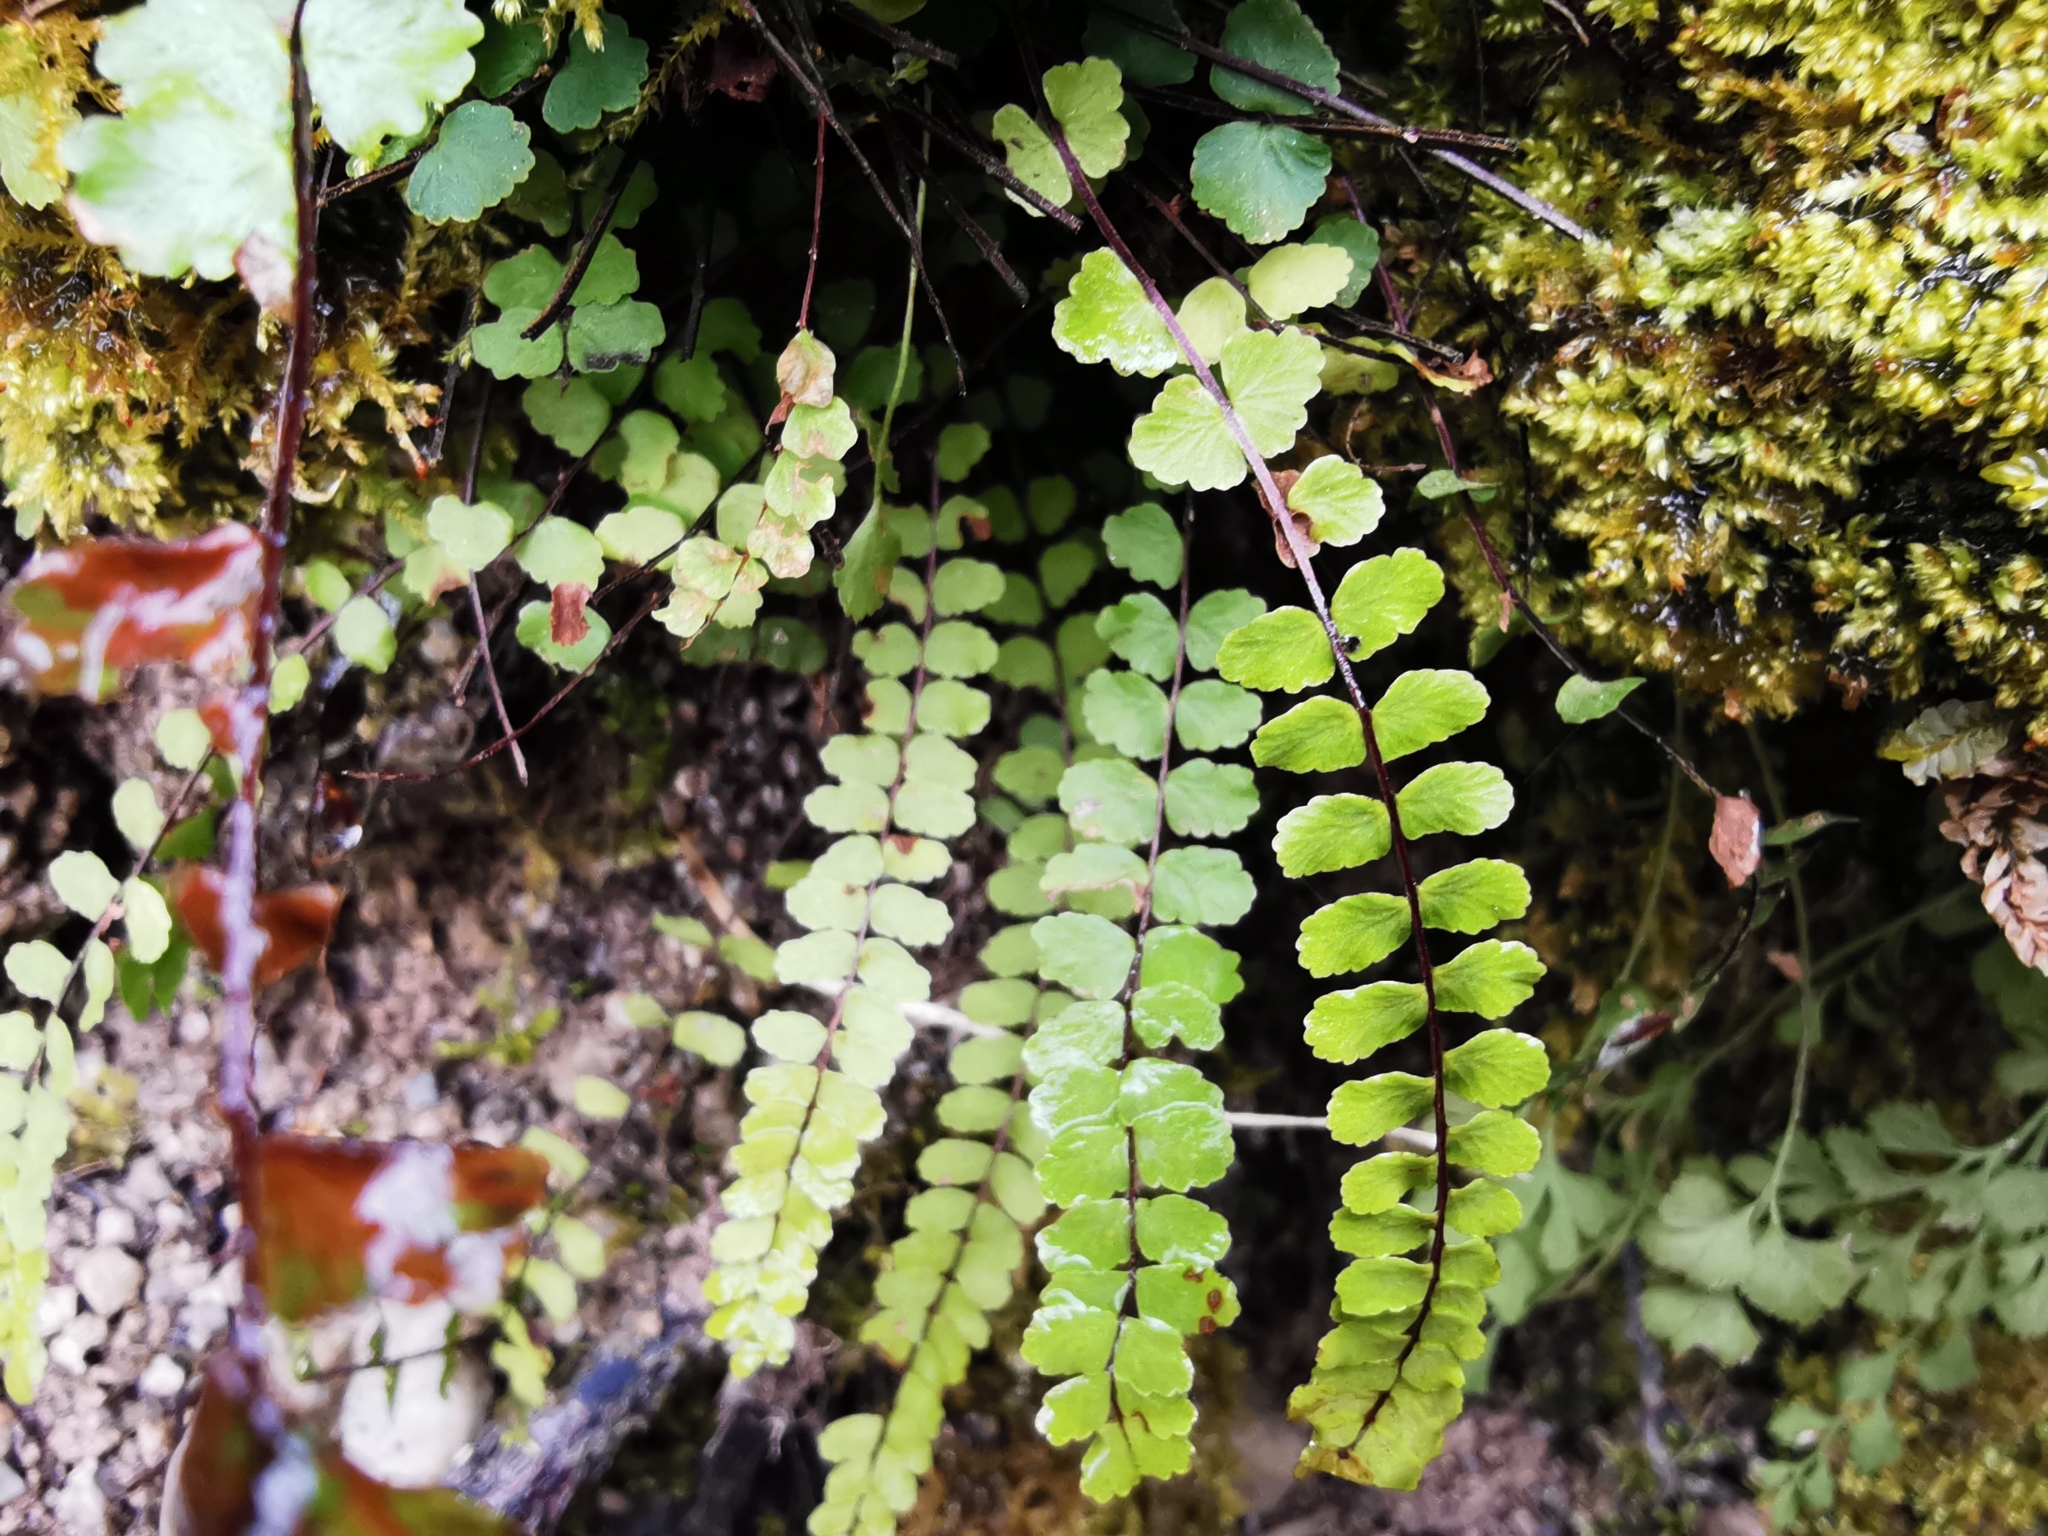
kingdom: Plantae
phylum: Tracheophyta
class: Polypodiopsida
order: Polypodiales
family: Aspleniaceae
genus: Asplenium
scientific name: Asplenium trichomanes
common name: Maidenhair spleenwort
